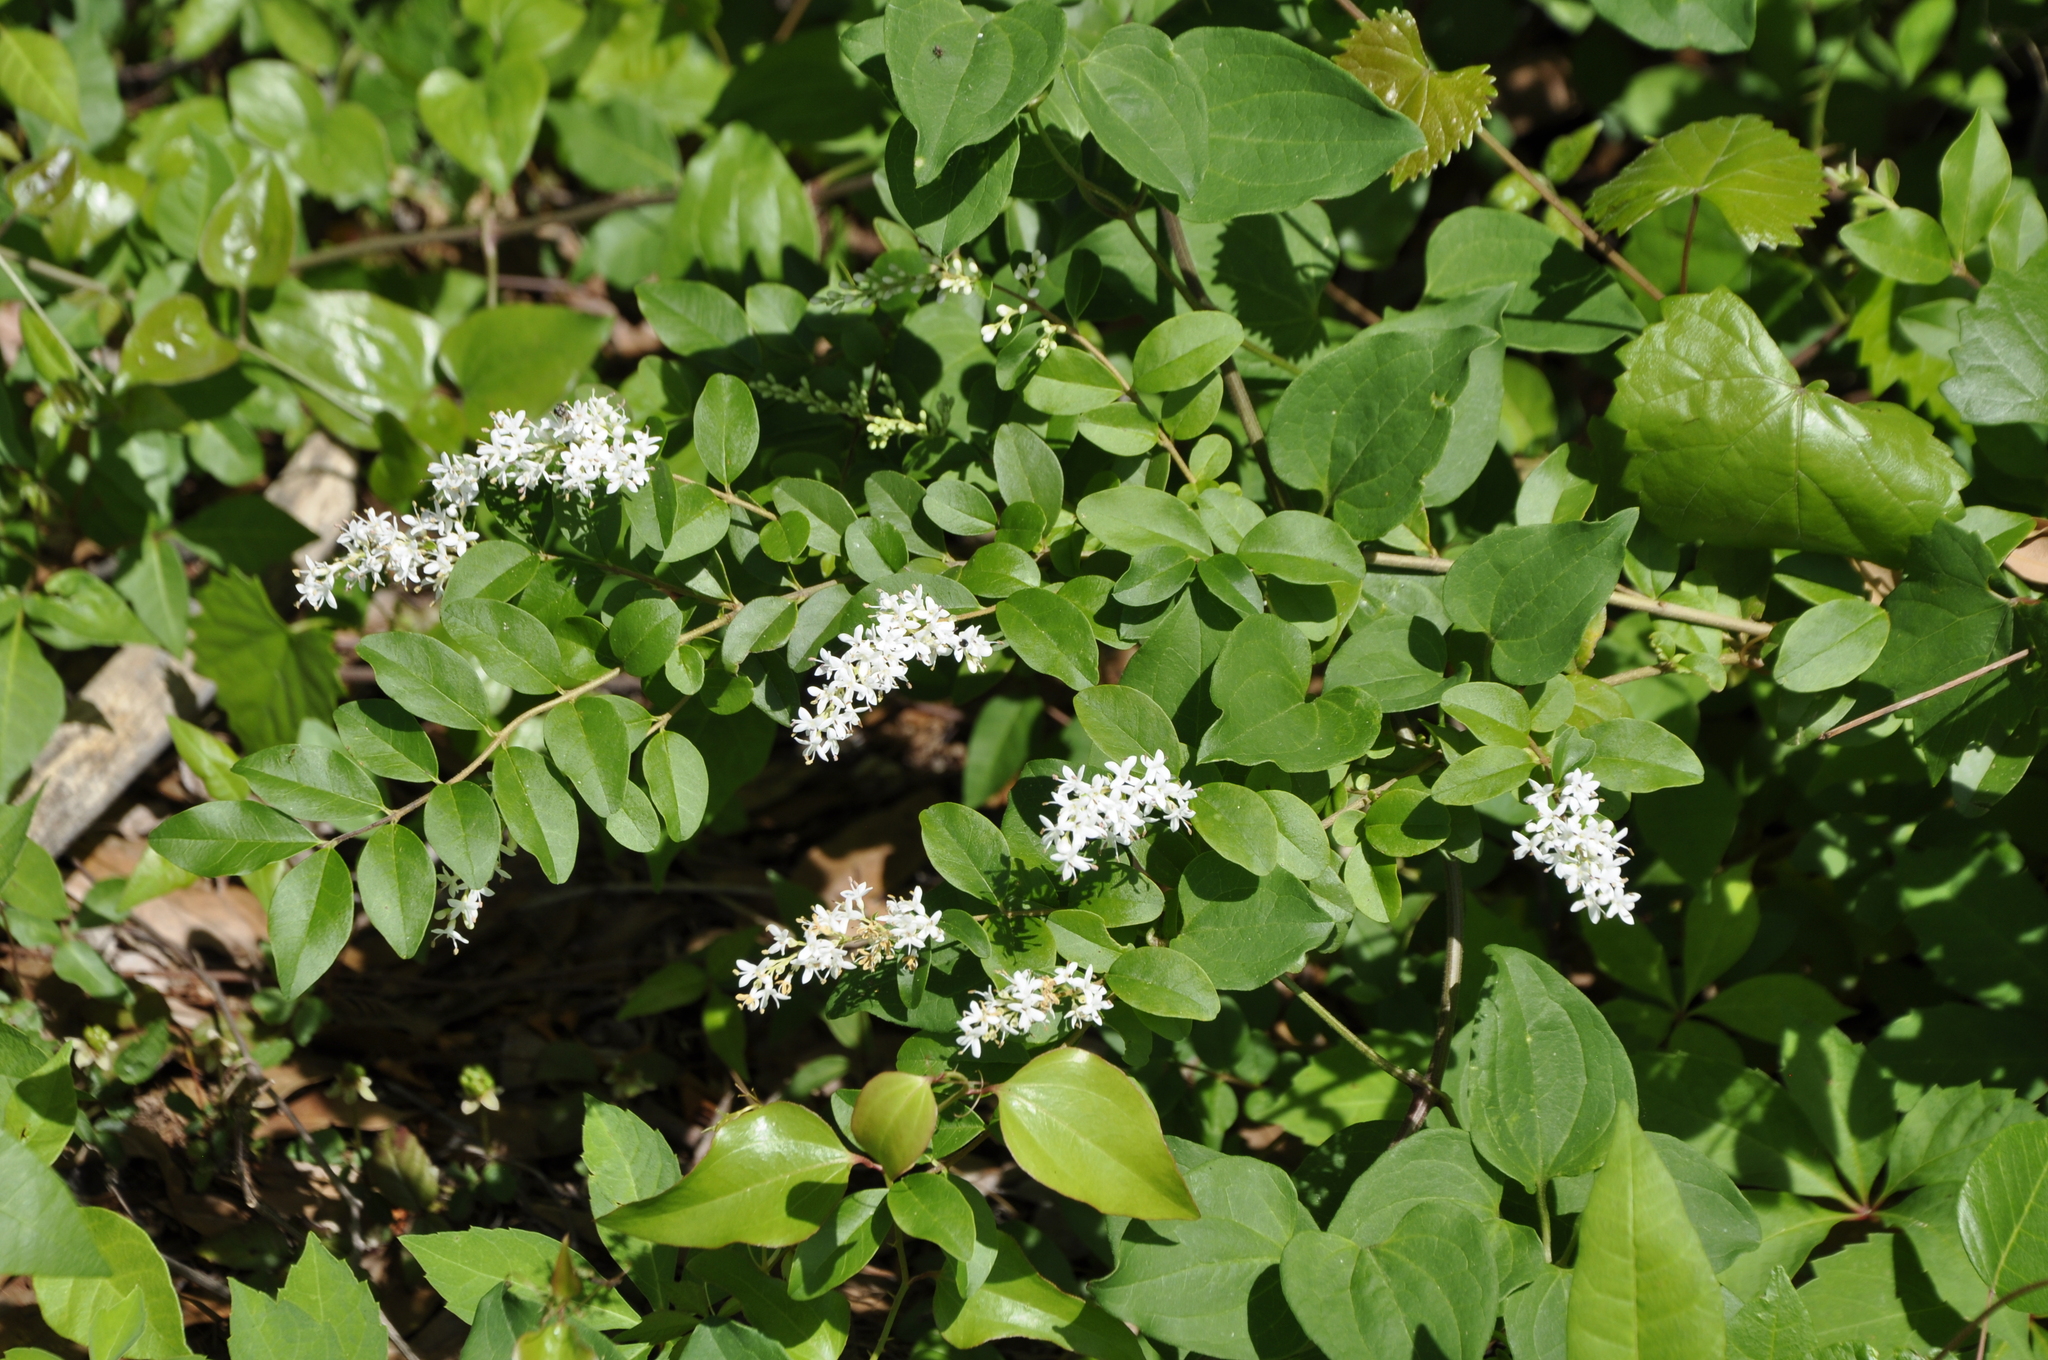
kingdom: Plantae
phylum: Tracheophyta
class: Magnoliopsida
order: Lamiales
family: Oleaceae
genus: Ligustrum
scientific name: Ligustrum sinense
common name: Chinese privet
